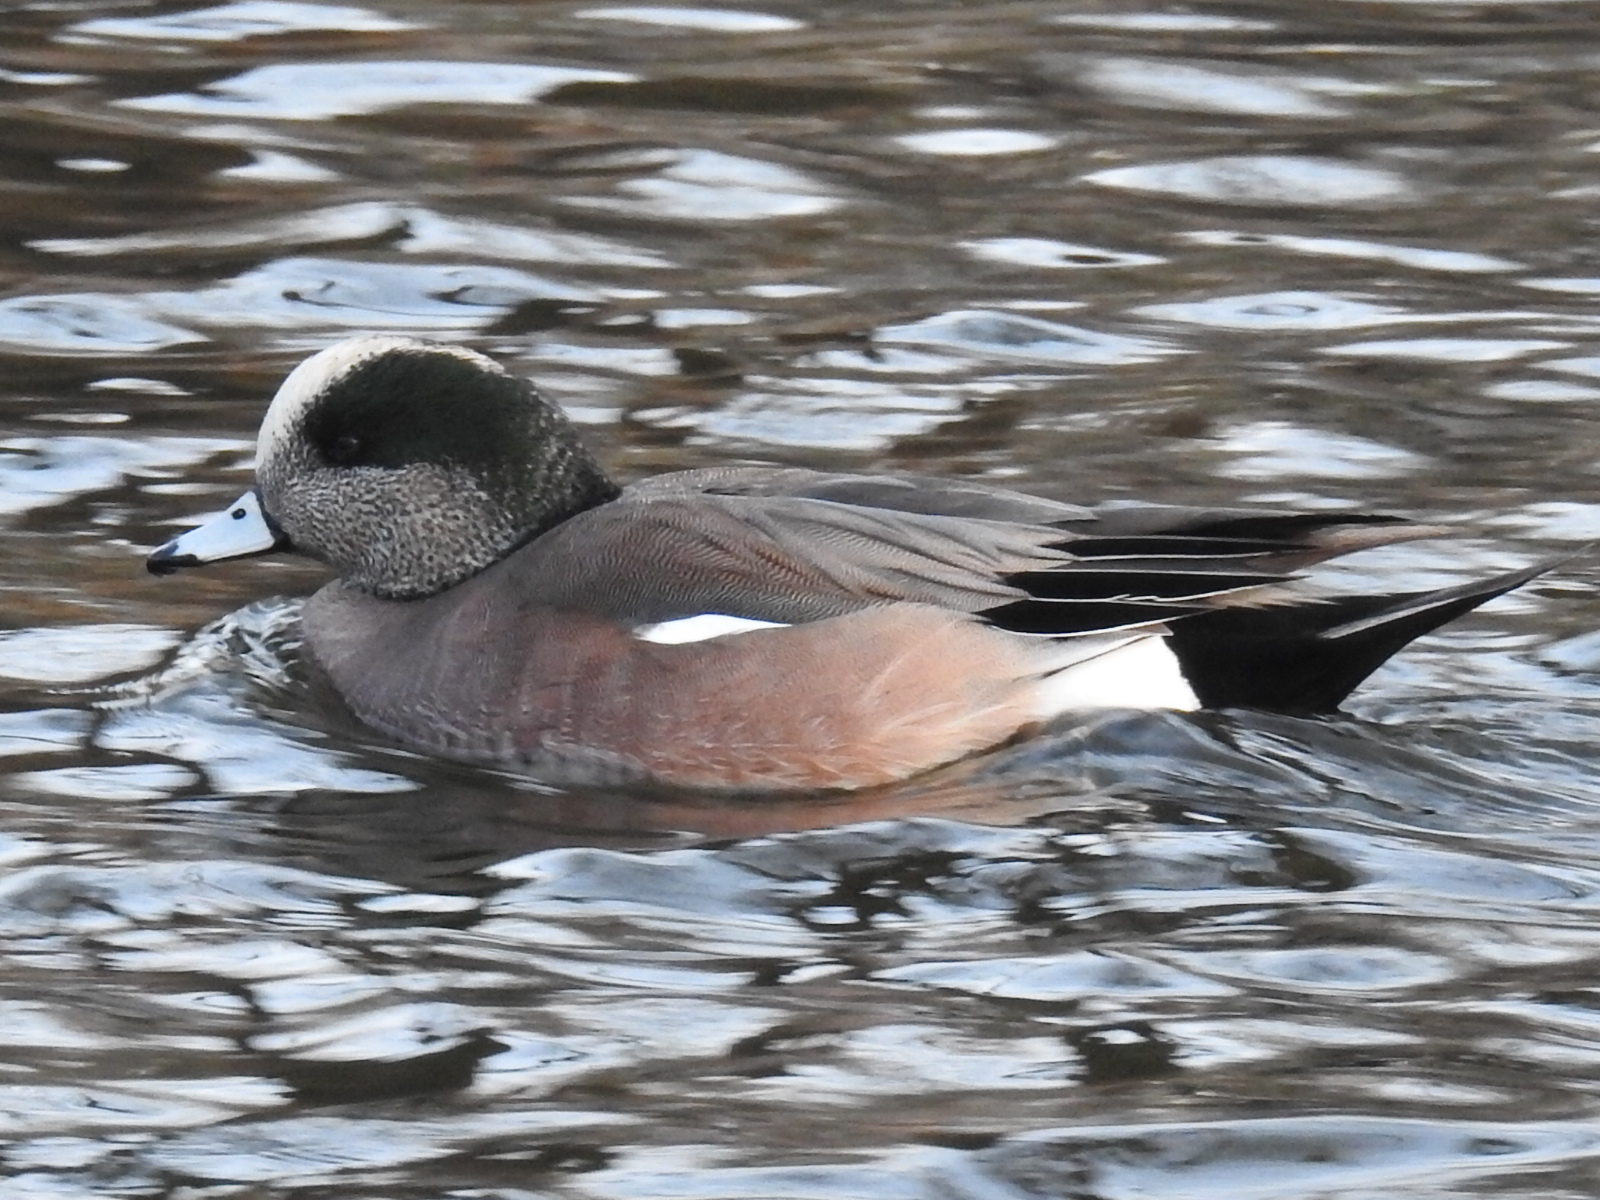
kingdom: Animalia
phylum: Chordata
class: Aves
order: Anseriformes
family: Anatidae
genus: Mareca
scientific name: Mareca americana
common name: American wigeon
